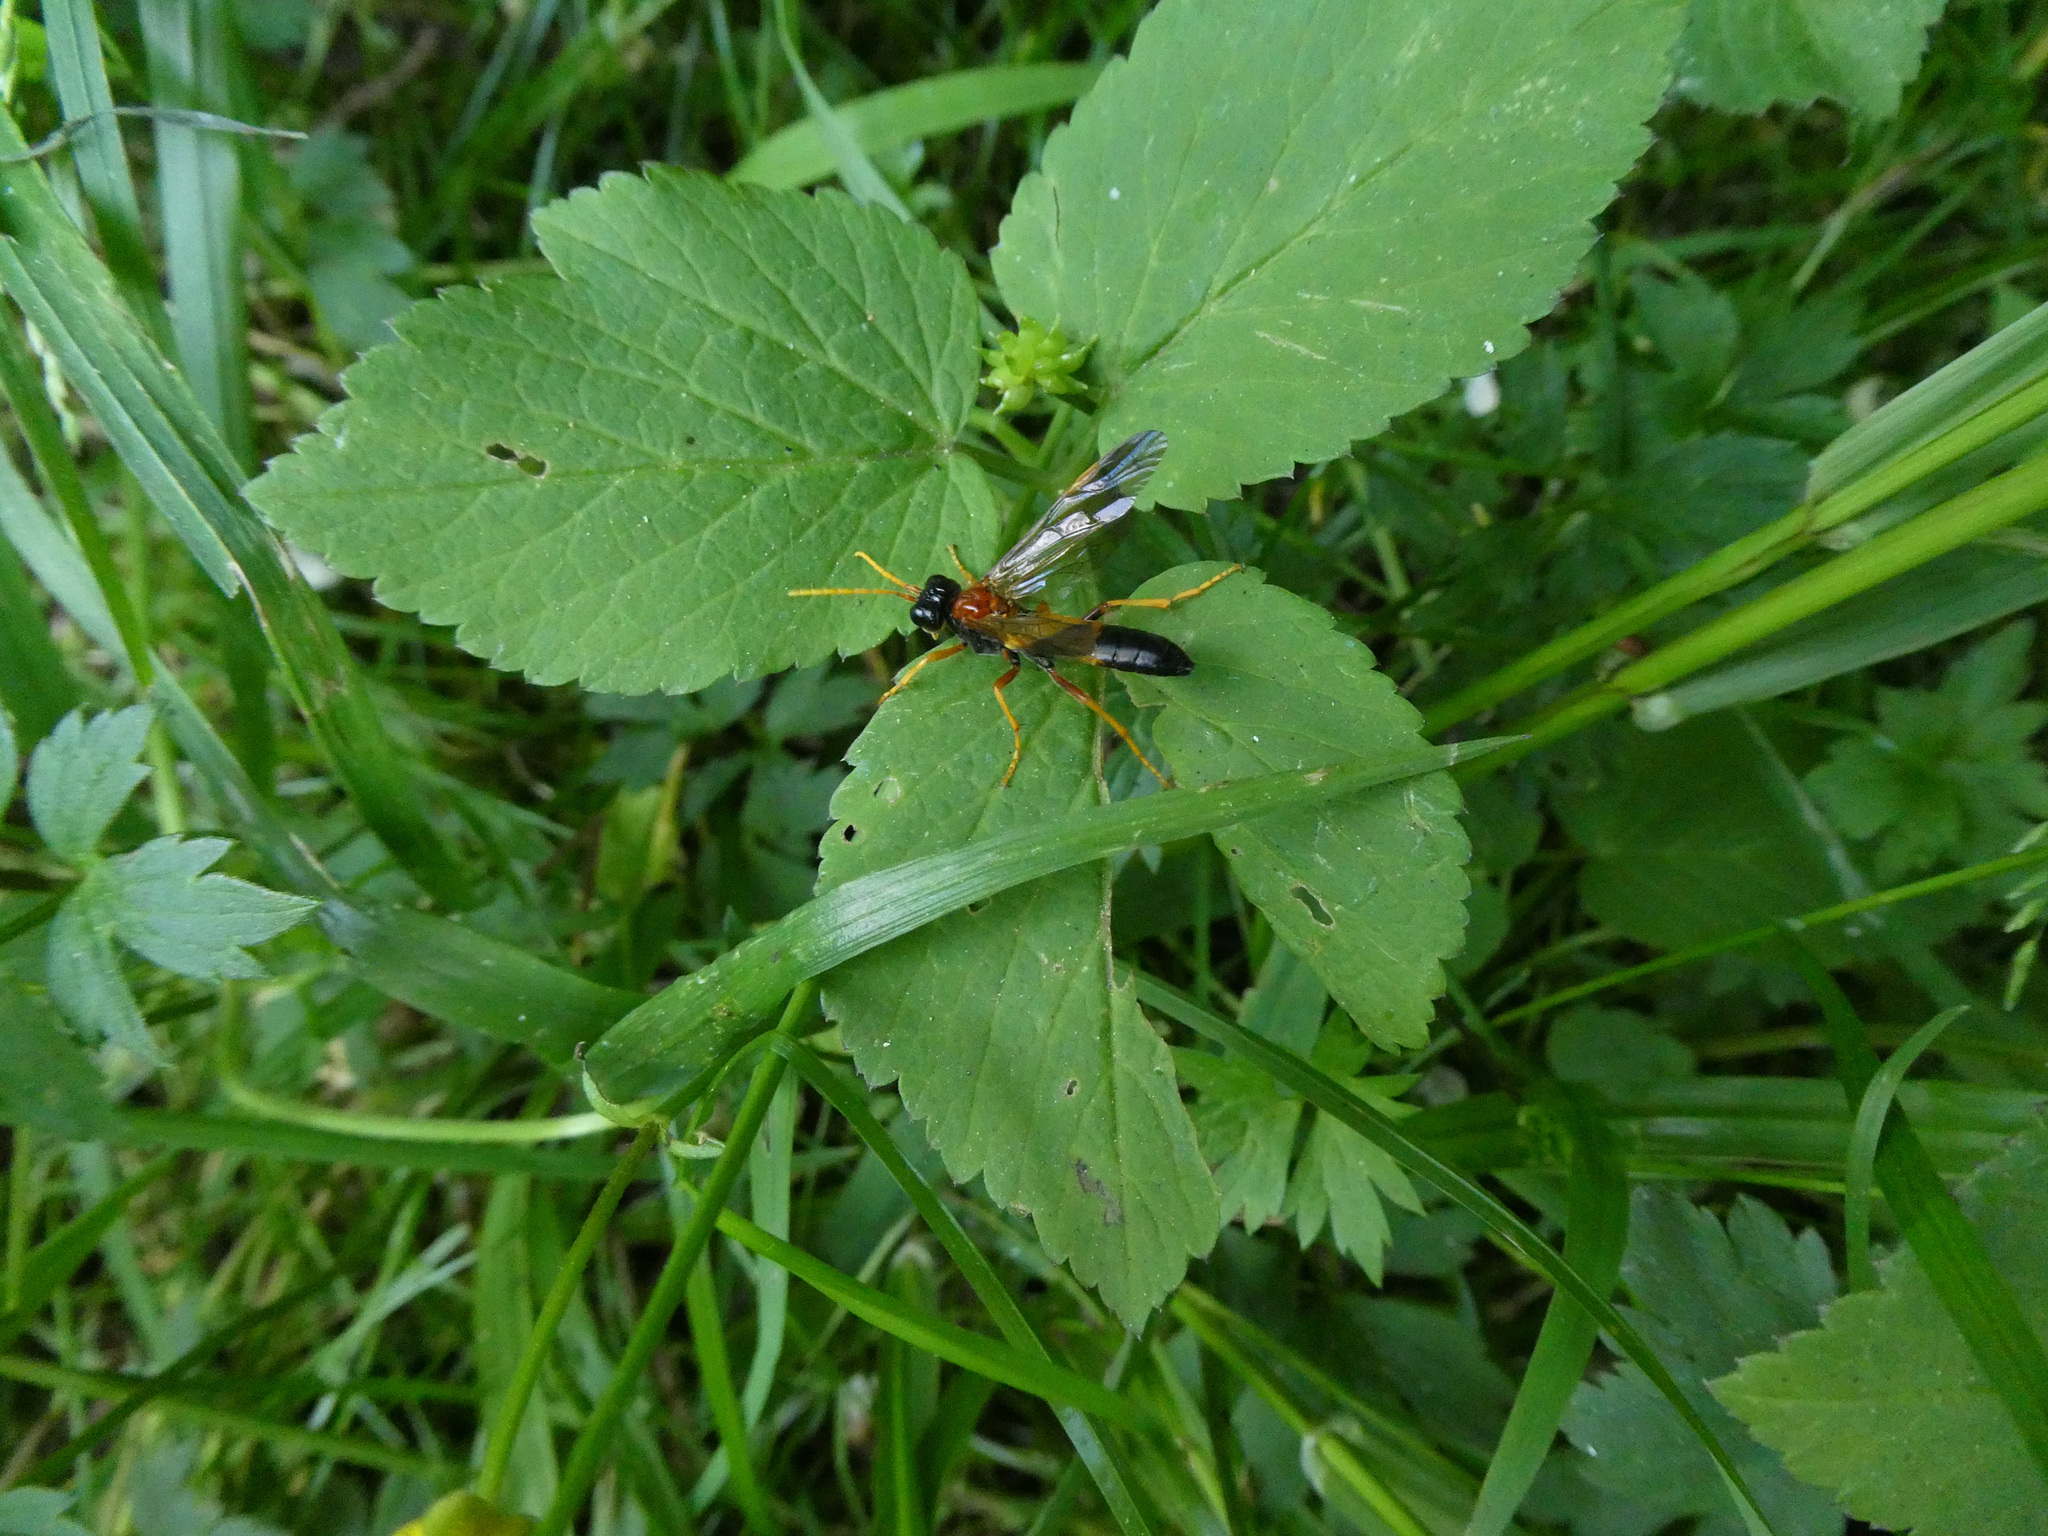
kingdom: Animalia
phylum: Arthropoda
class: Insecta
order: Hymenoptera
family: Tenthredinidae
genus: Tenthredo
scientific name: Tenthredo campestris
